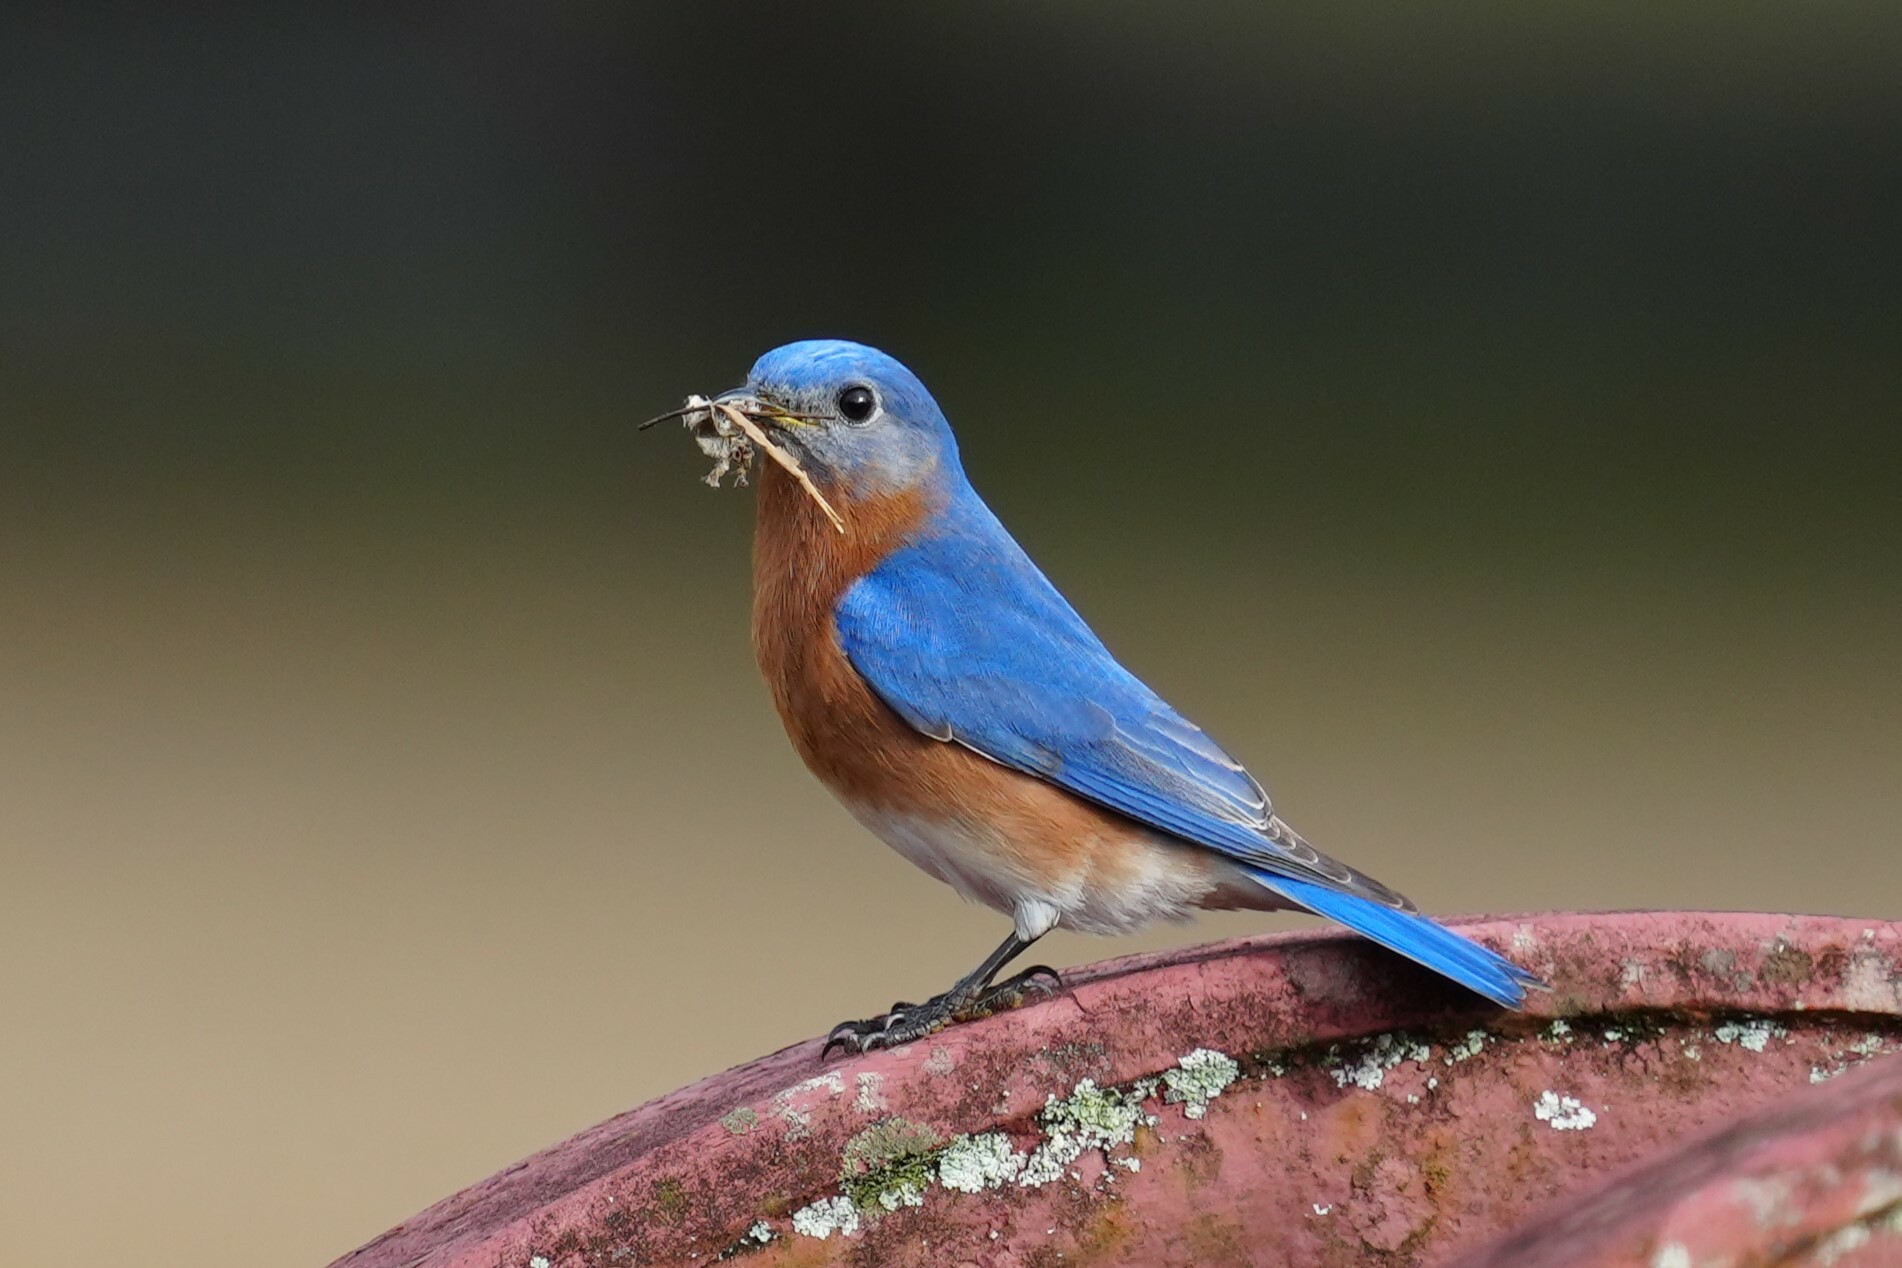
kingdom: Animalia
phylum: Chordata
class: Aves
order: Passeriformes
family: Turdidae
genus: Sialia
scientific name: Sialia sialis
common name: Eastern bluebird
